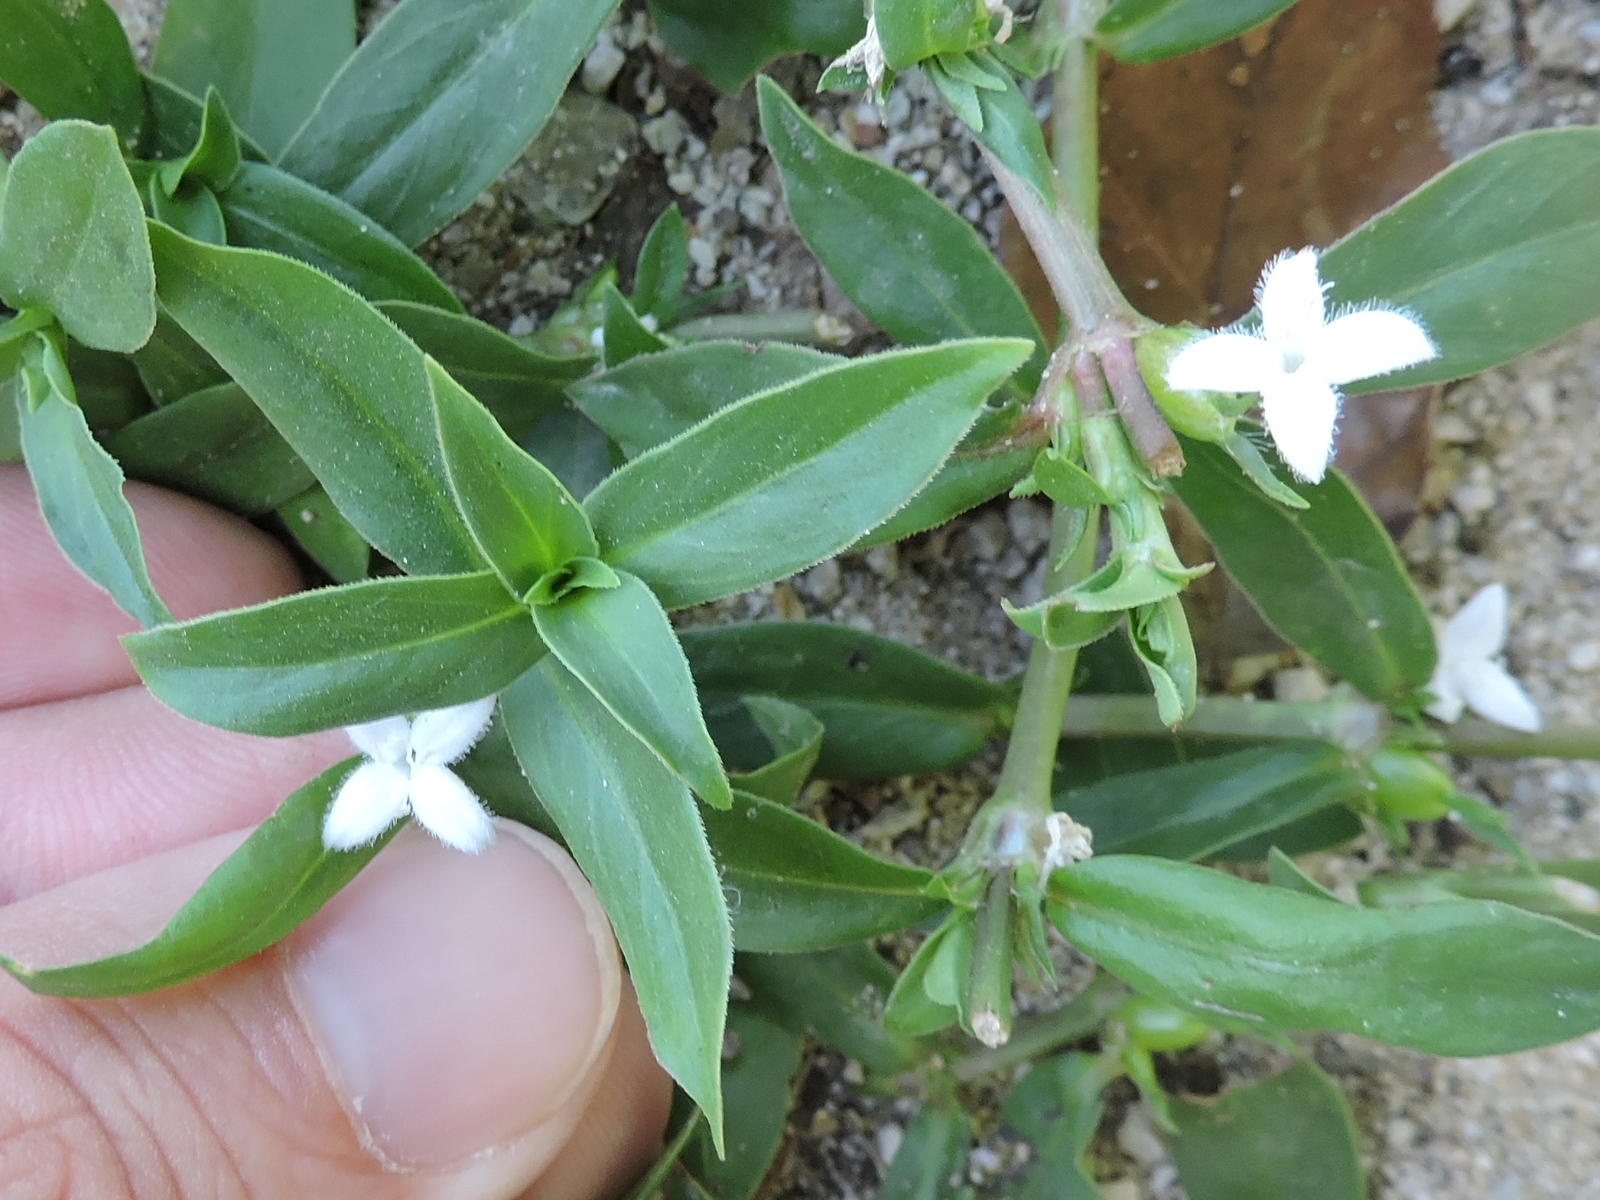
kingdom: Plantae
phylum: Tracheophyta
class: Magnoliopsida
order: Gentianales
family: Rubiaceae
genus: Diodia
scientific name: Diodia virginiana
